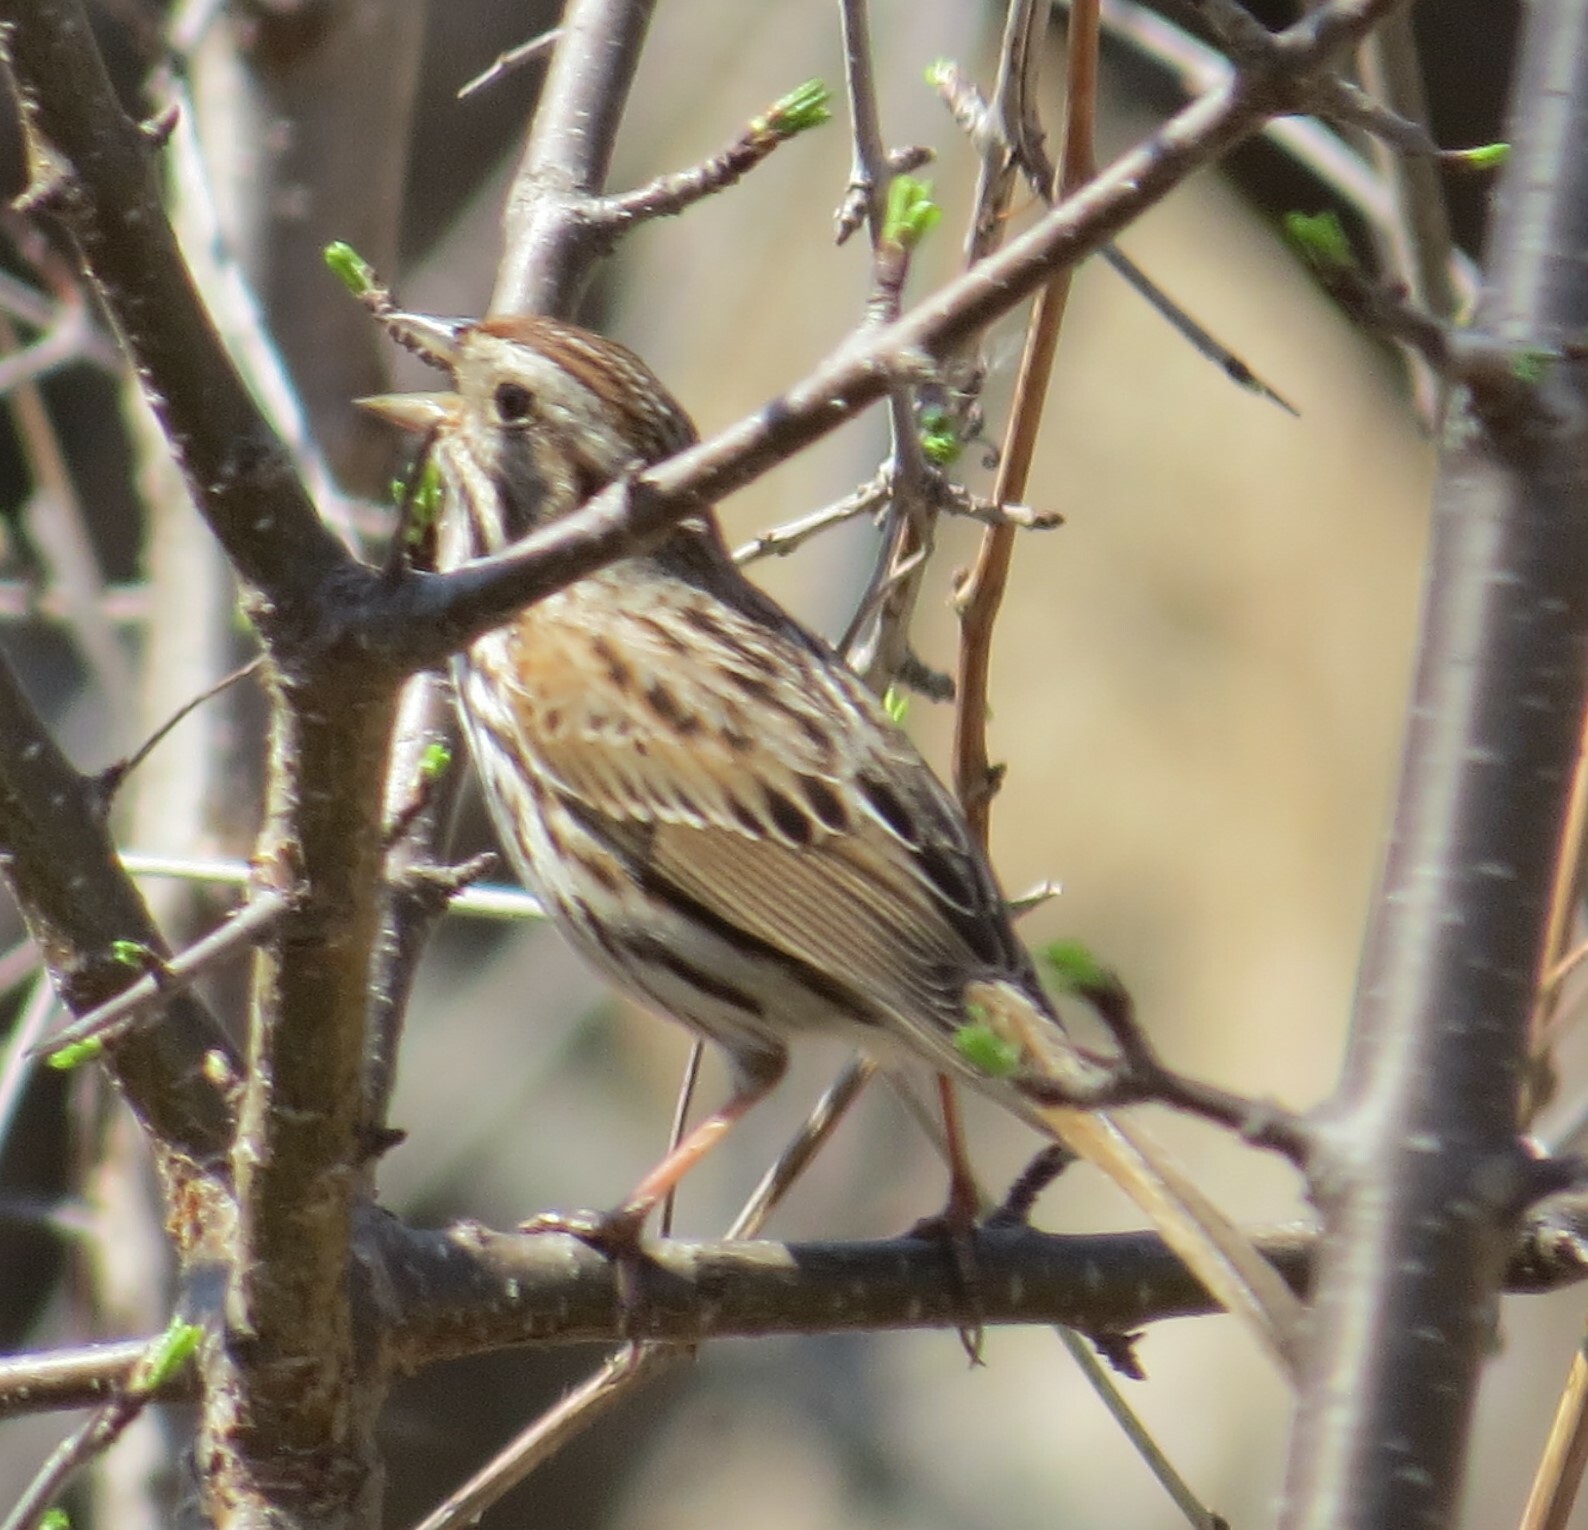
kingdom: Animalia
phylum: Chordata
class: Aves
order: Passeriformes
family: Passerellidae
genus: Melospiza
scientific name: Melospiza melodia
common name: Song sparrow
